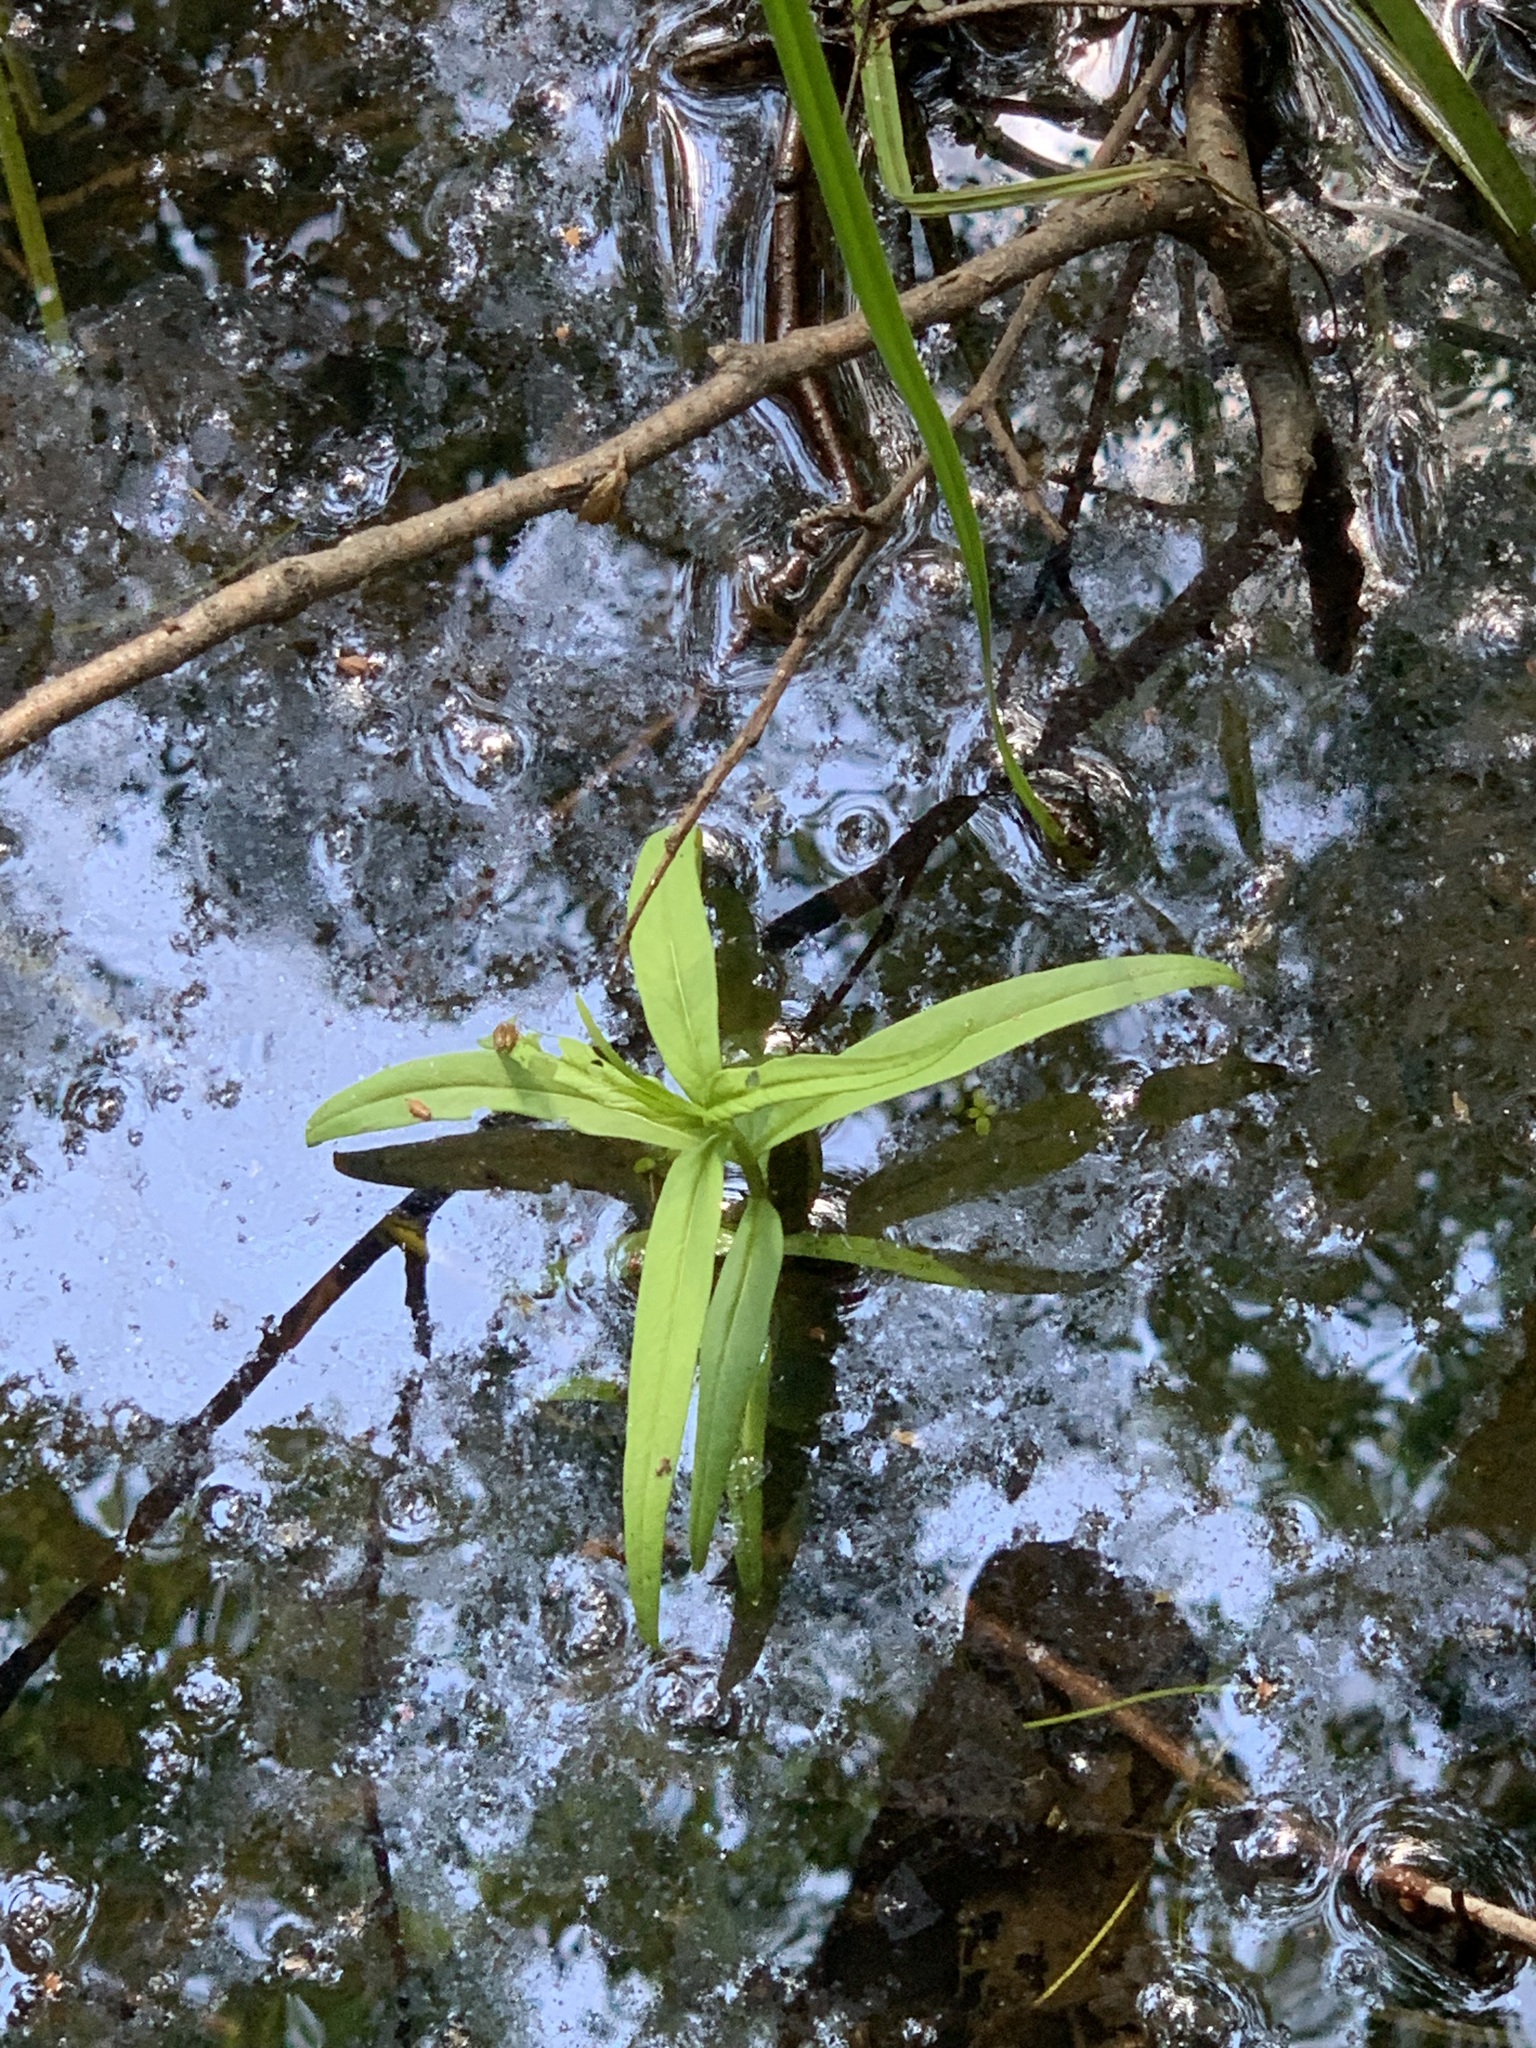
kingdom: Plantae
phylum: Tracheophyta
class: Magnoliopsida
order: Ericales
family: Primulaceae
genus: Lysimachia
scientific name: Lysimachia thyrsiflora
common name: Tufted loosestrife
